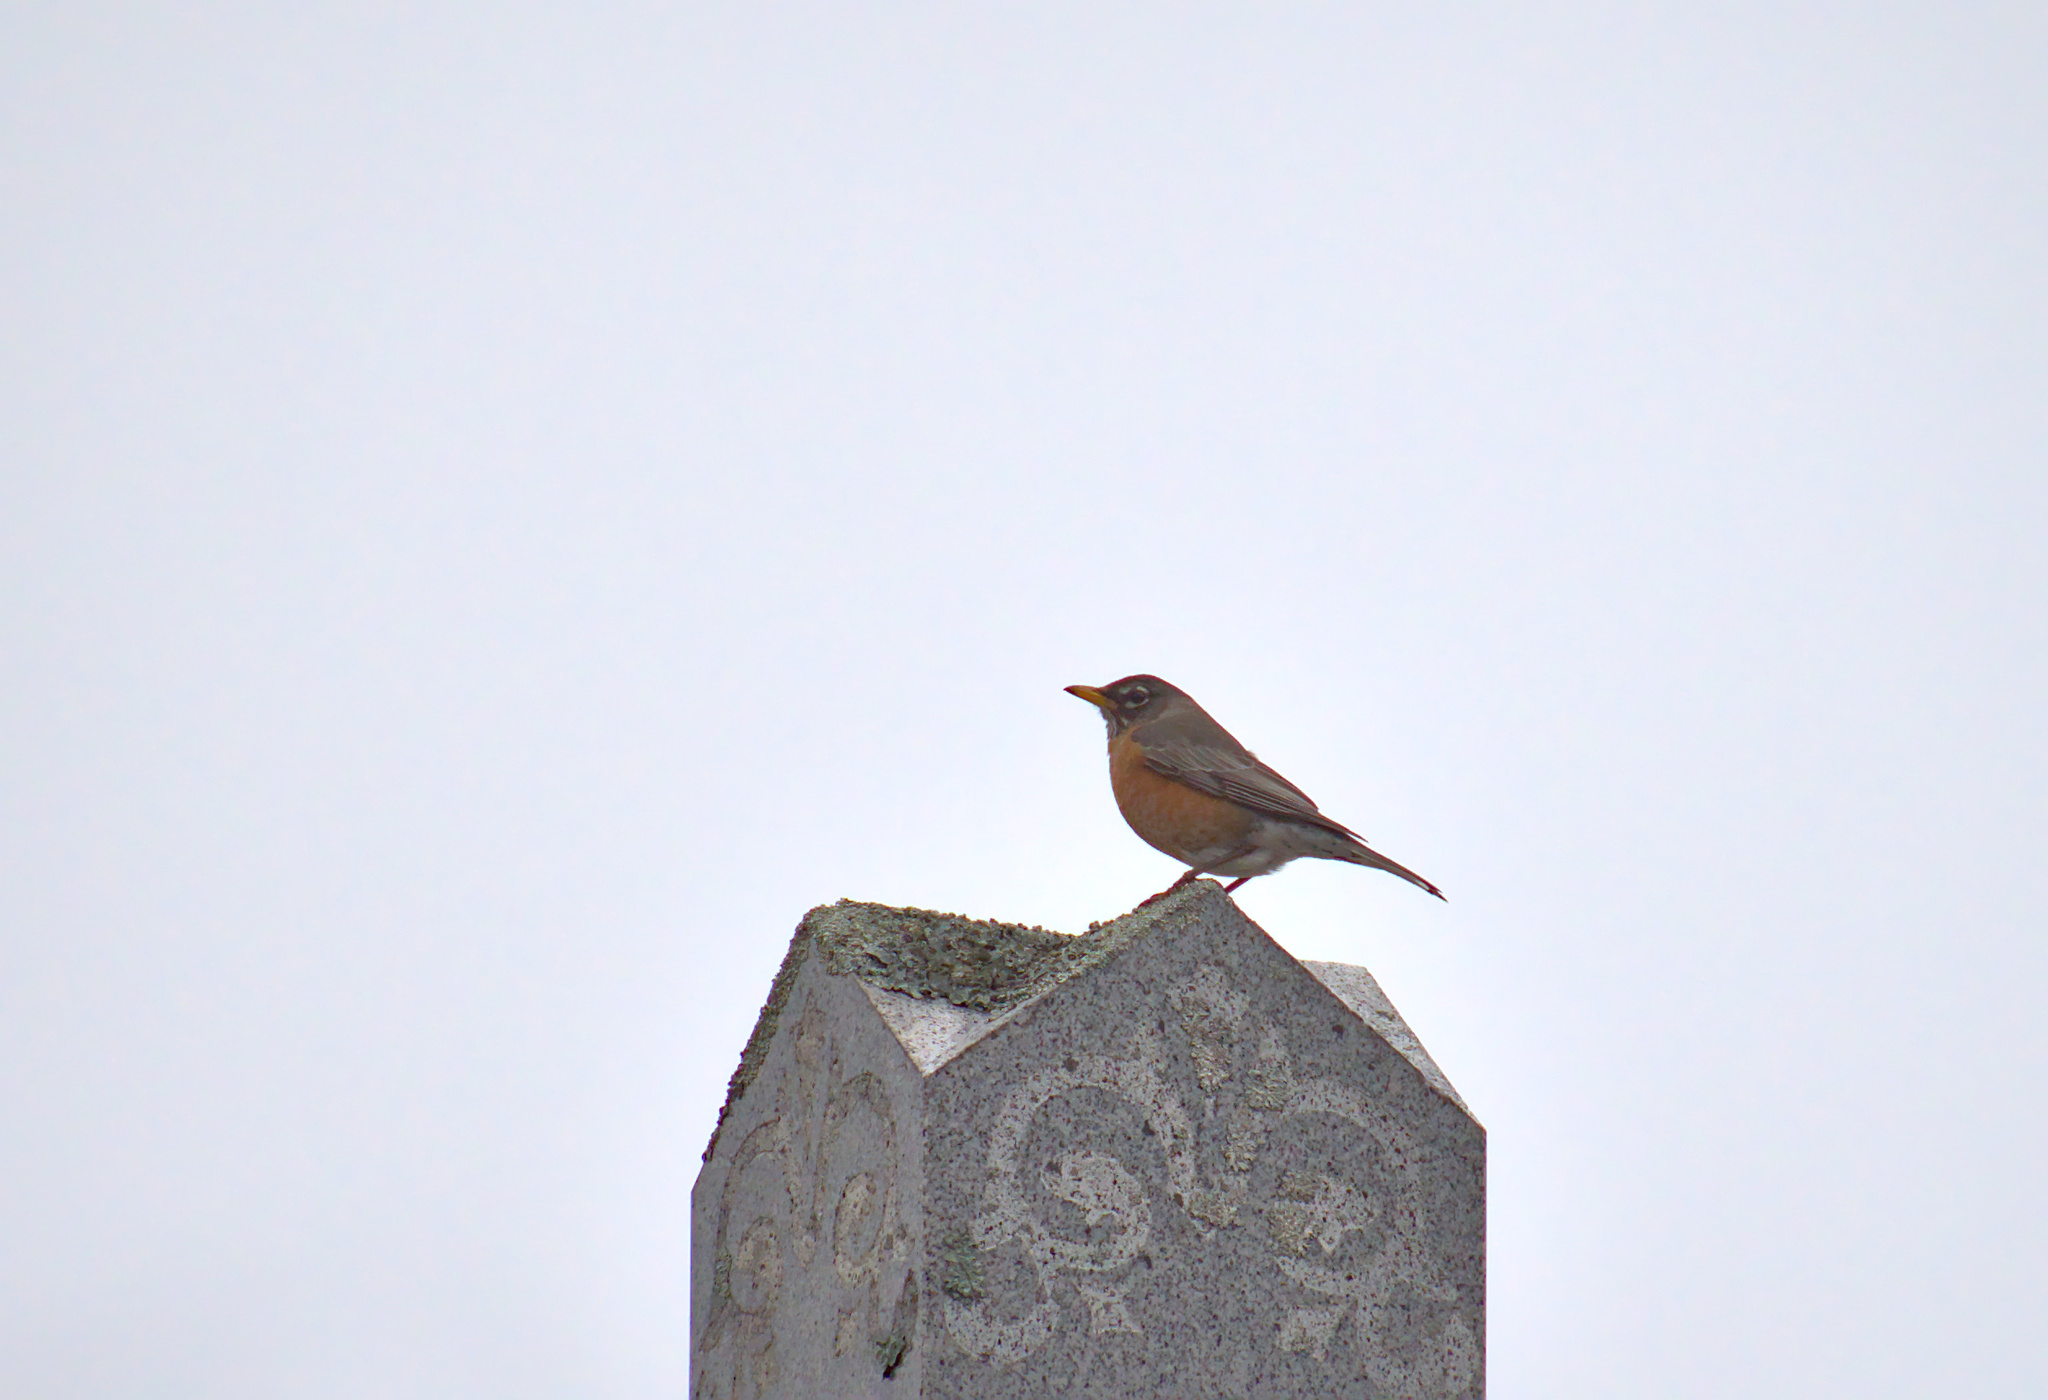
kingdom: Animalia
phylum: Chordata
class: Aves
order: Passeriformes
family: Turdidae
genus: Turdus
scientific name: Turdus migratorius
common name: American robin
